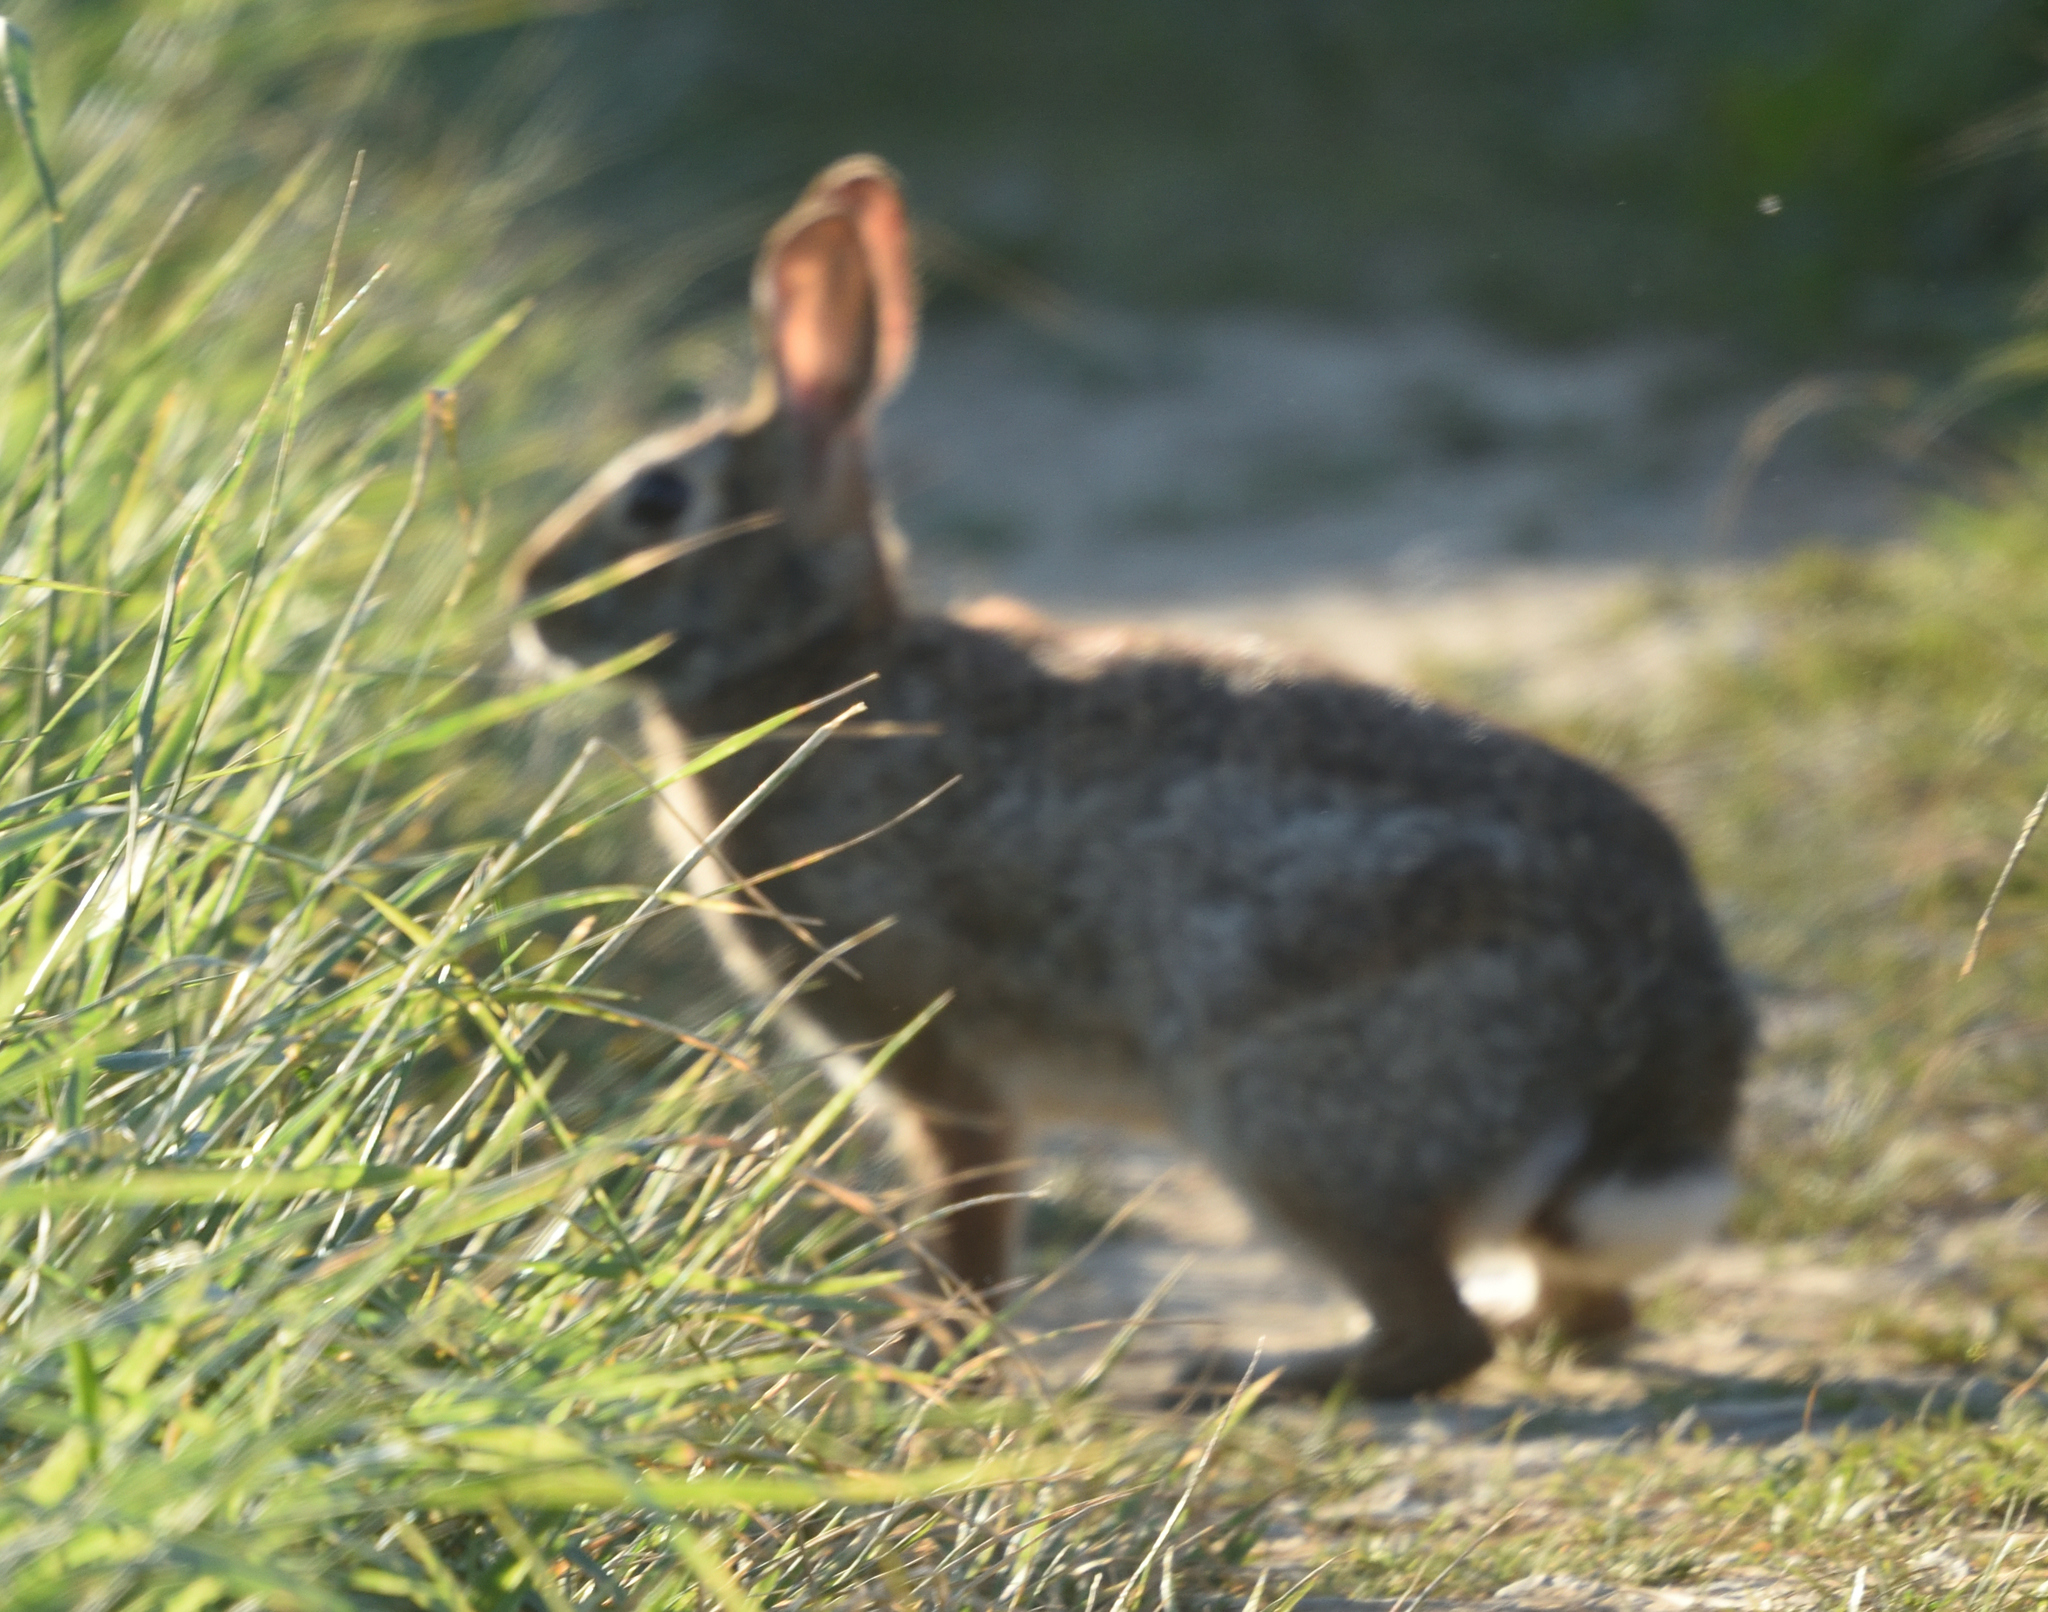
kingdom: Animalia
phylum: Chordata
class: Mammalia
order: Lagomorpha
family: Leporidae
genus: Sylvilagus
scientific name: Sylvilagus floridanus
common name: Eastern cottontail
